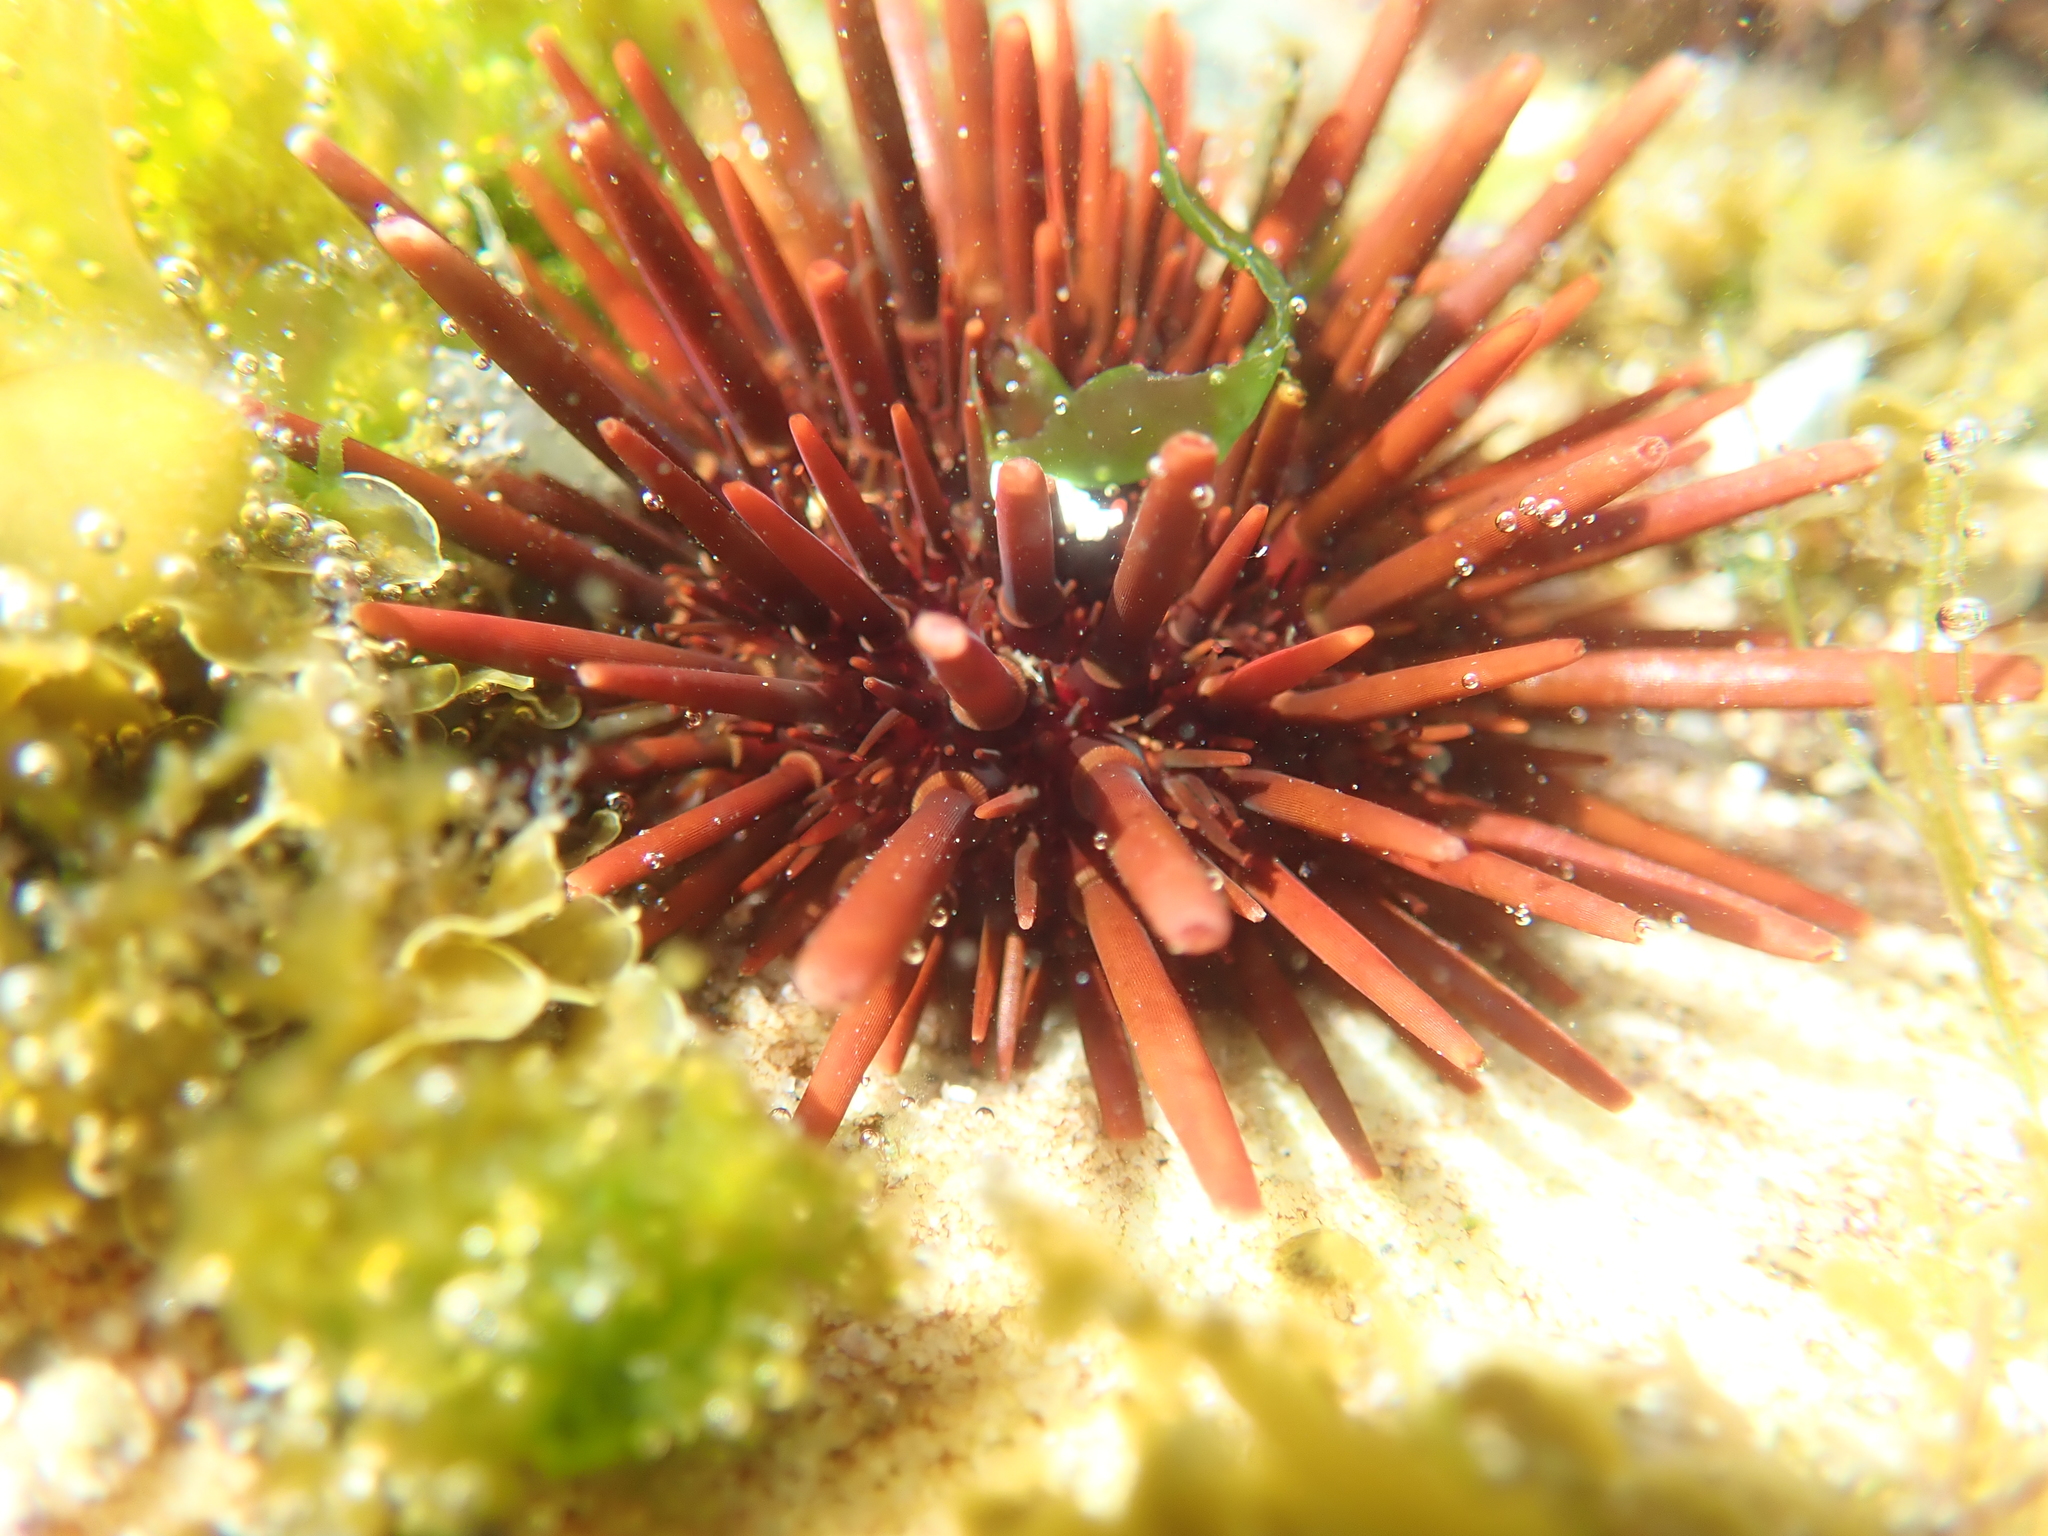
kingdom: Animalia
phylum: Echinodermata
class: Echinoidea
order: Camarodonta
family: Echinometridae
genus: Heliocidaris
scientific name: Heliocidaris tuberculata
